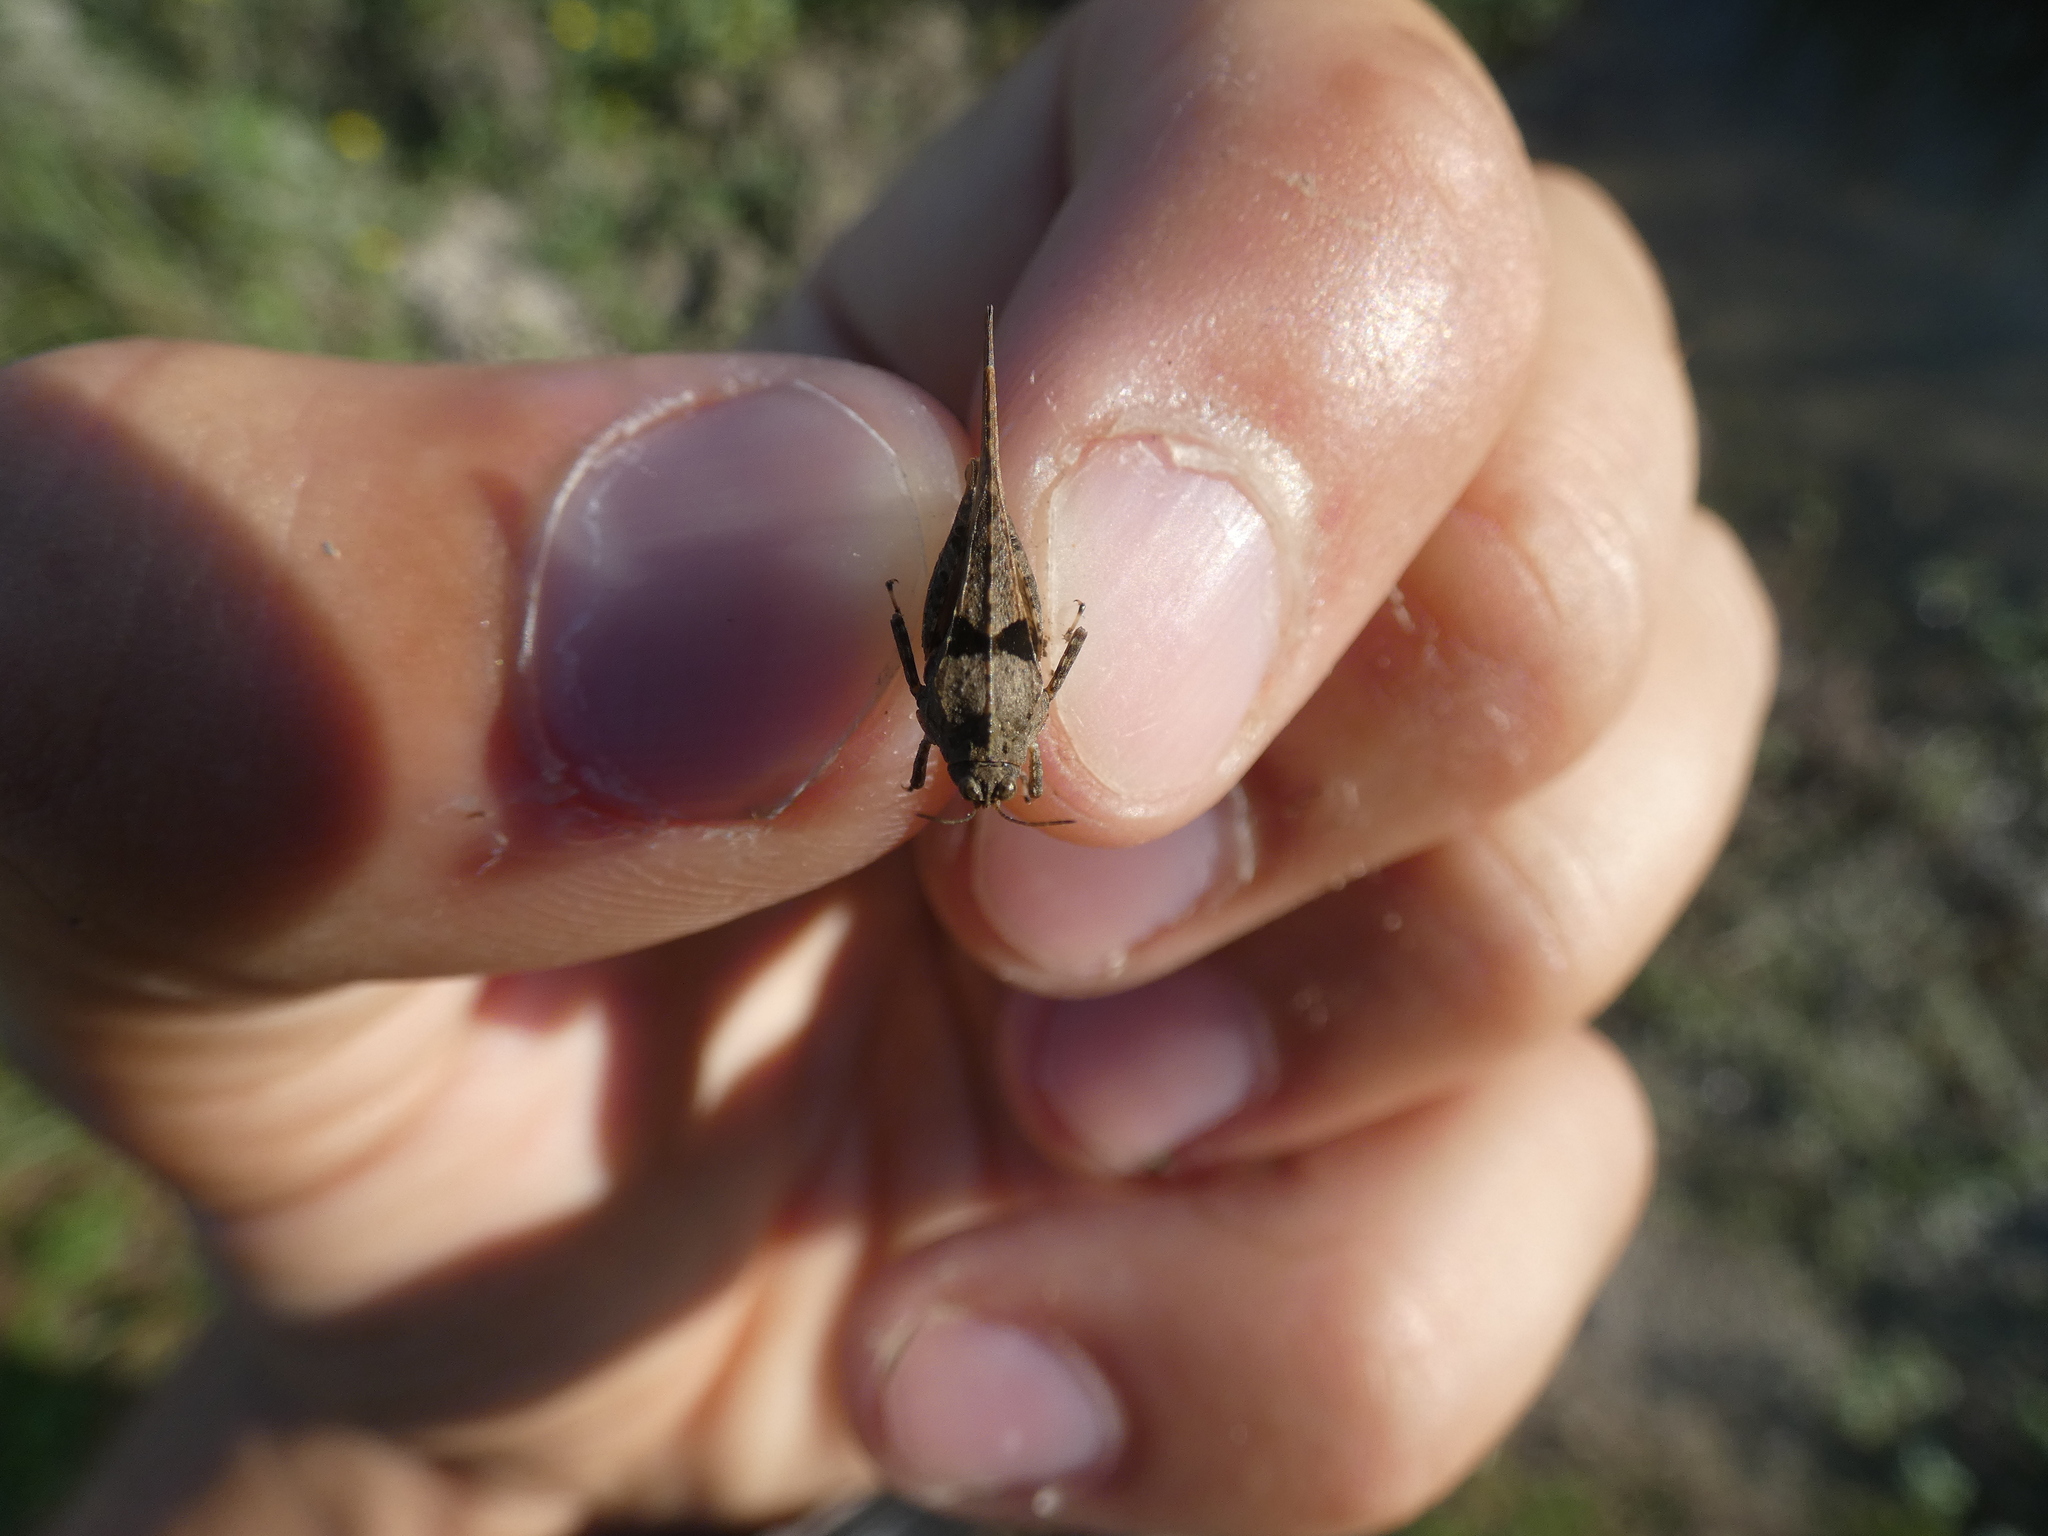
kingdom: Animalia
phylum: Arthropoda
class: Insecta
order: Orthoptera
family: Tetrigidae
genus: Paratettix
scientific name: Paratettix meridionalis
